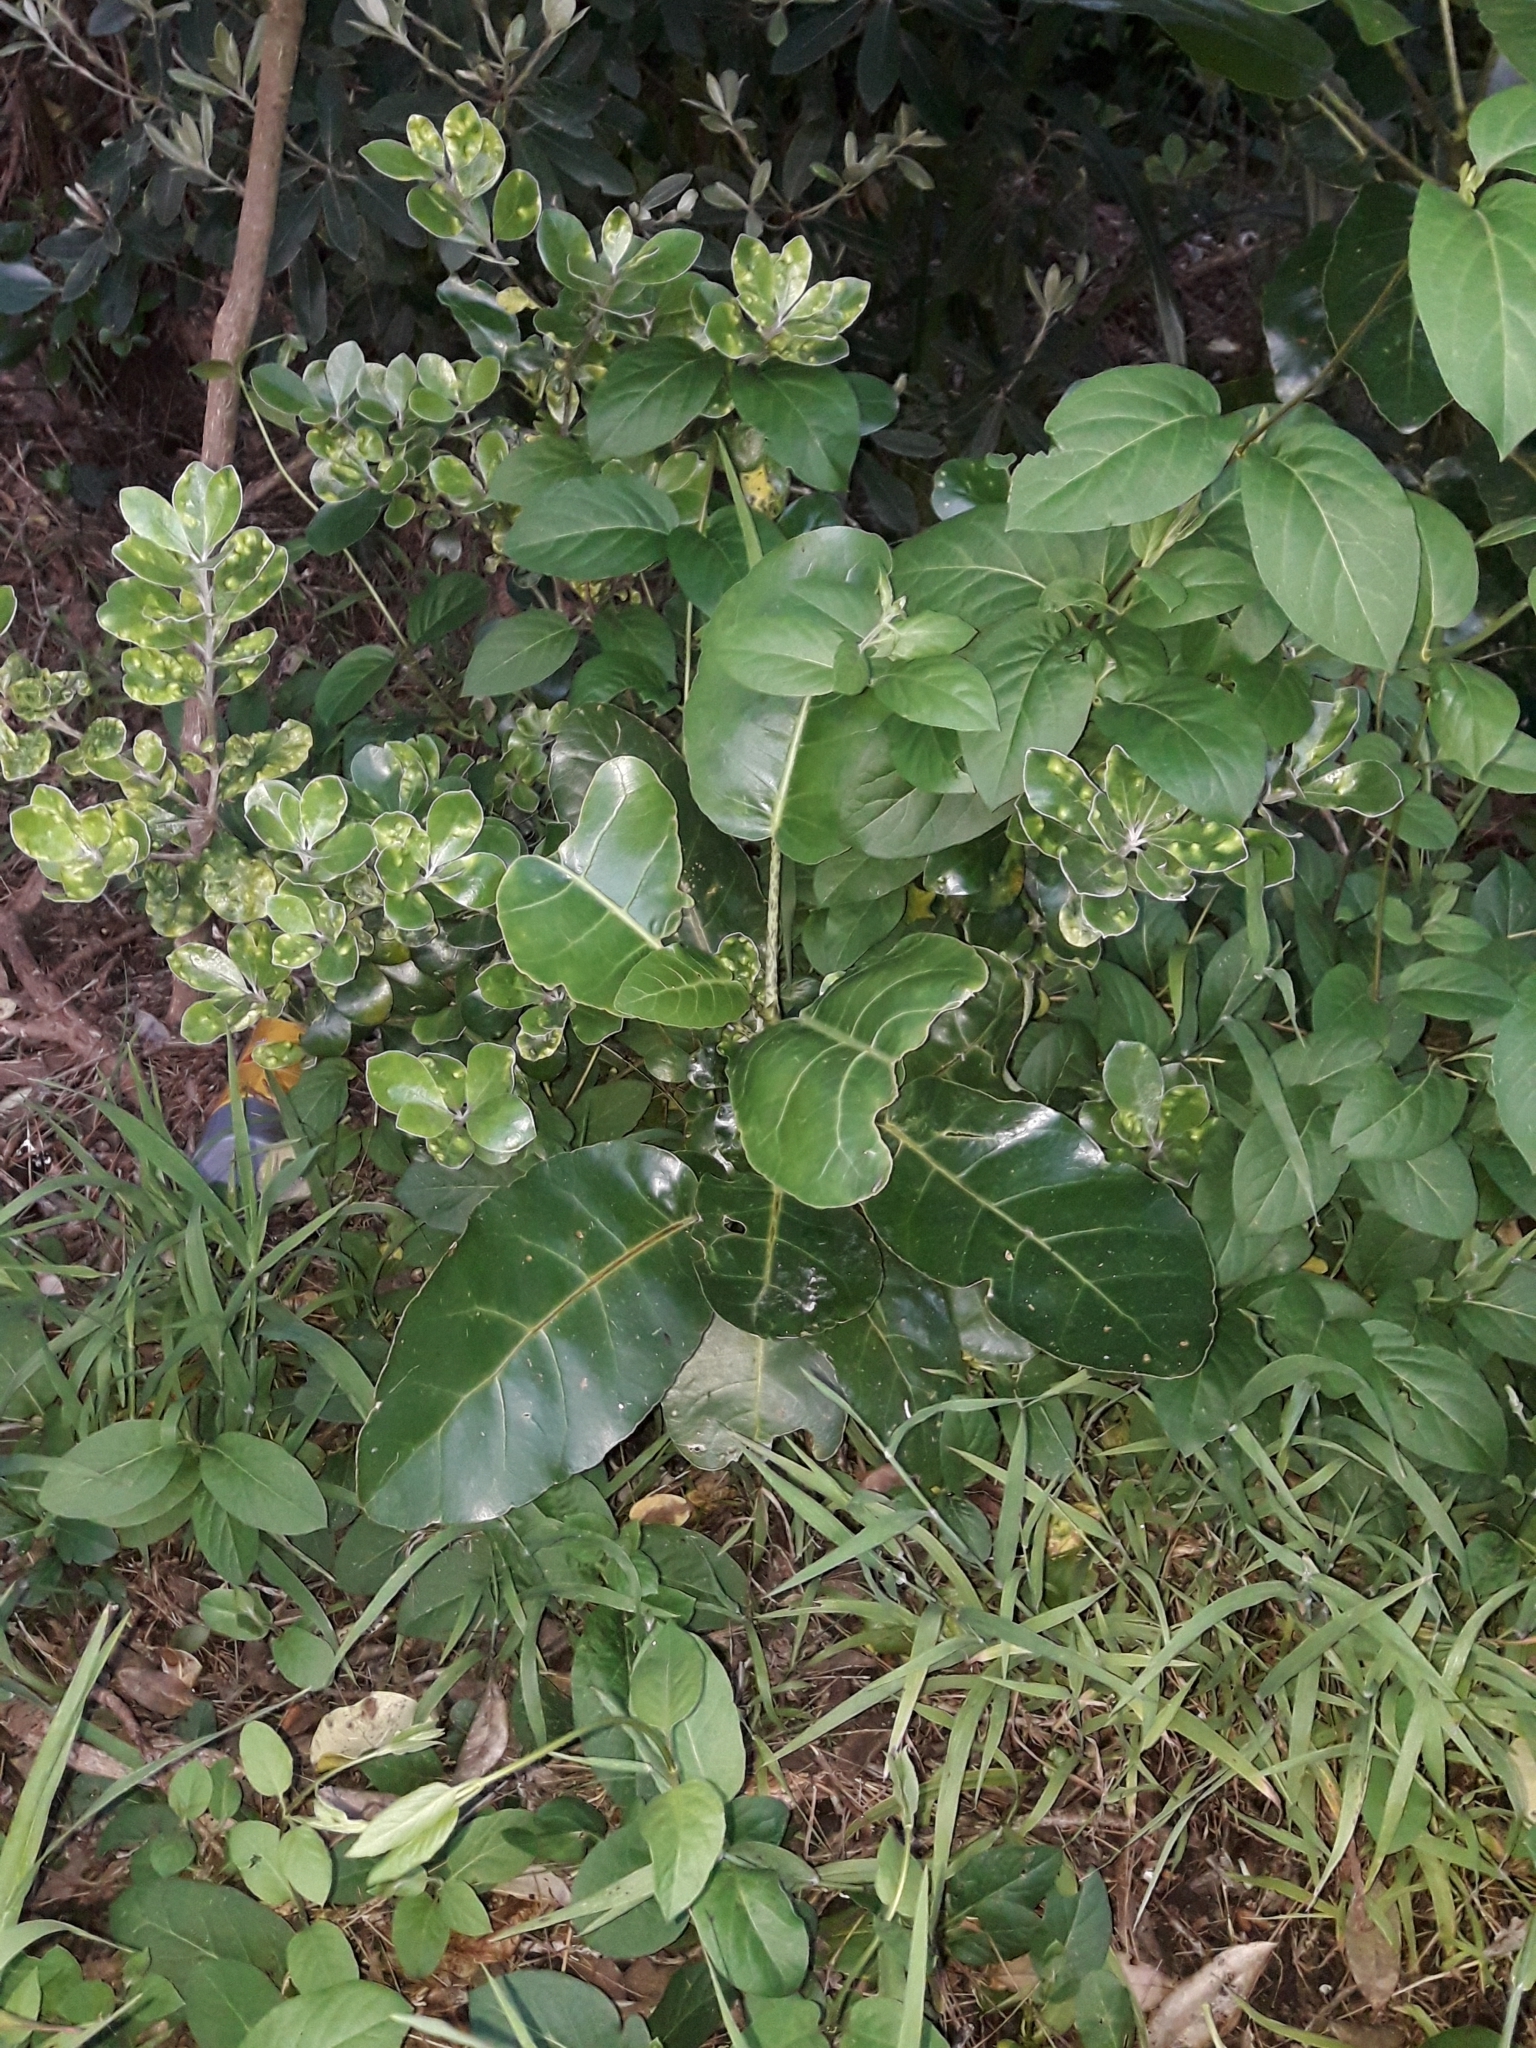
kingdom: Plantae
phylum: Tracheophyta
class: Magnoliopsida
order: Apiales
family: Araliaceae
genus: Meryta
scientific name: Meryta sinclairii
